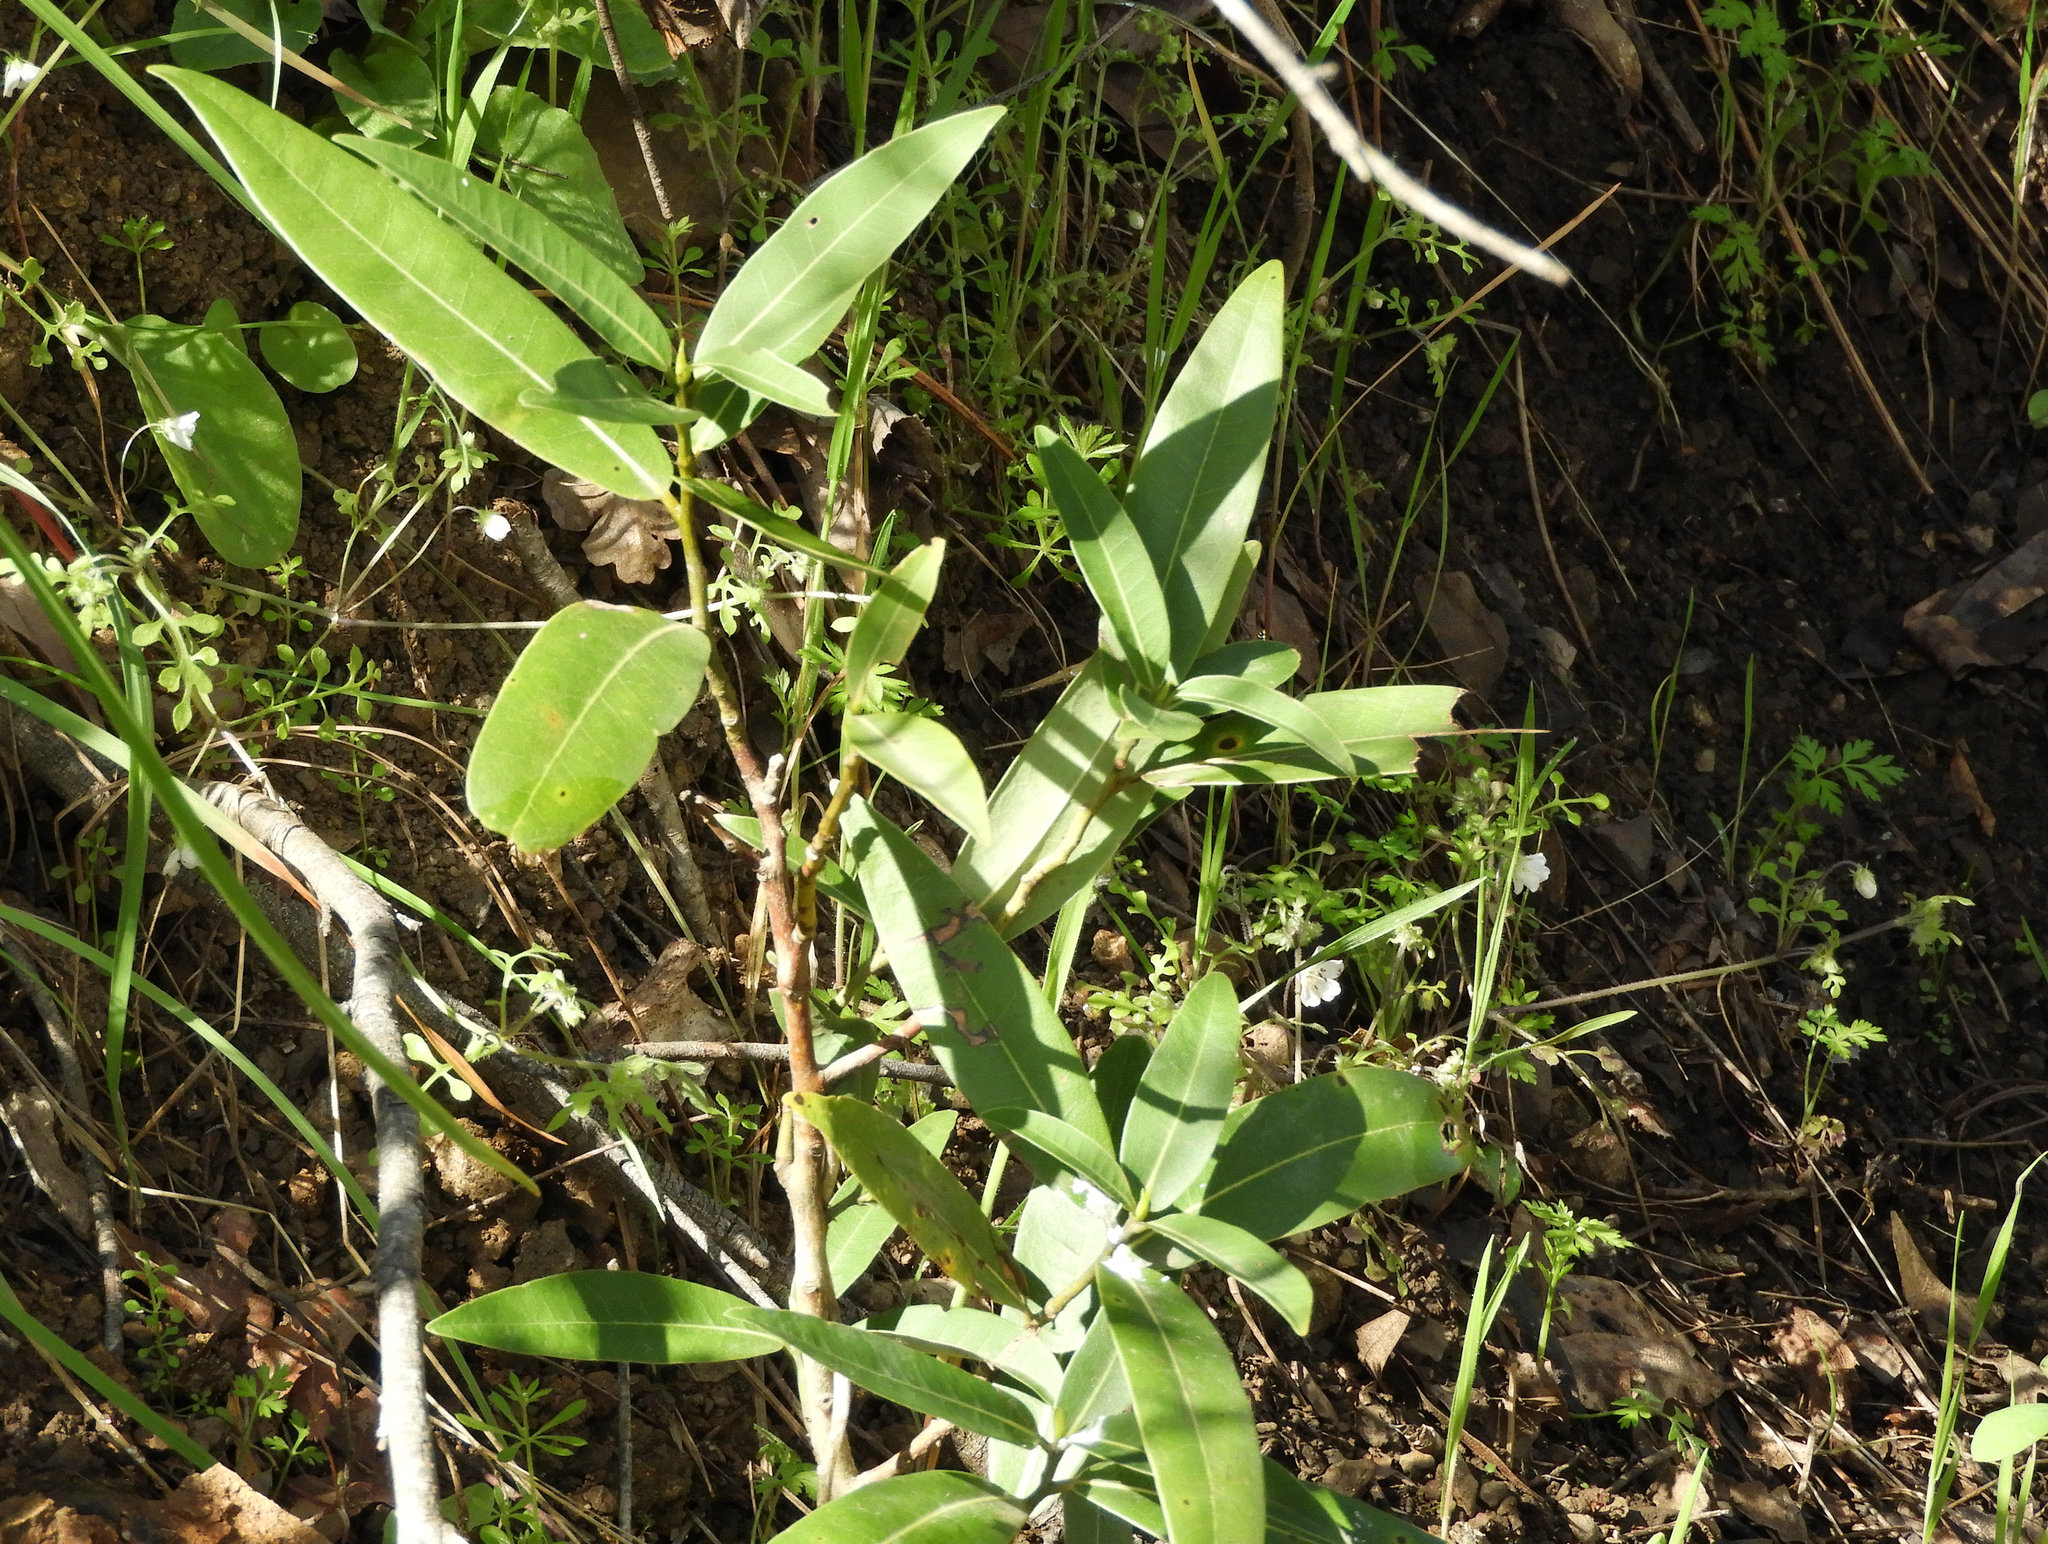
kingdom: Plantae
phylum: Tracheophyta
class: Magnoliopsida
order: Laurales
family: Lauraceae
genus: Umbellularia
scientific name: Umbellularia californica
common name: California bay
